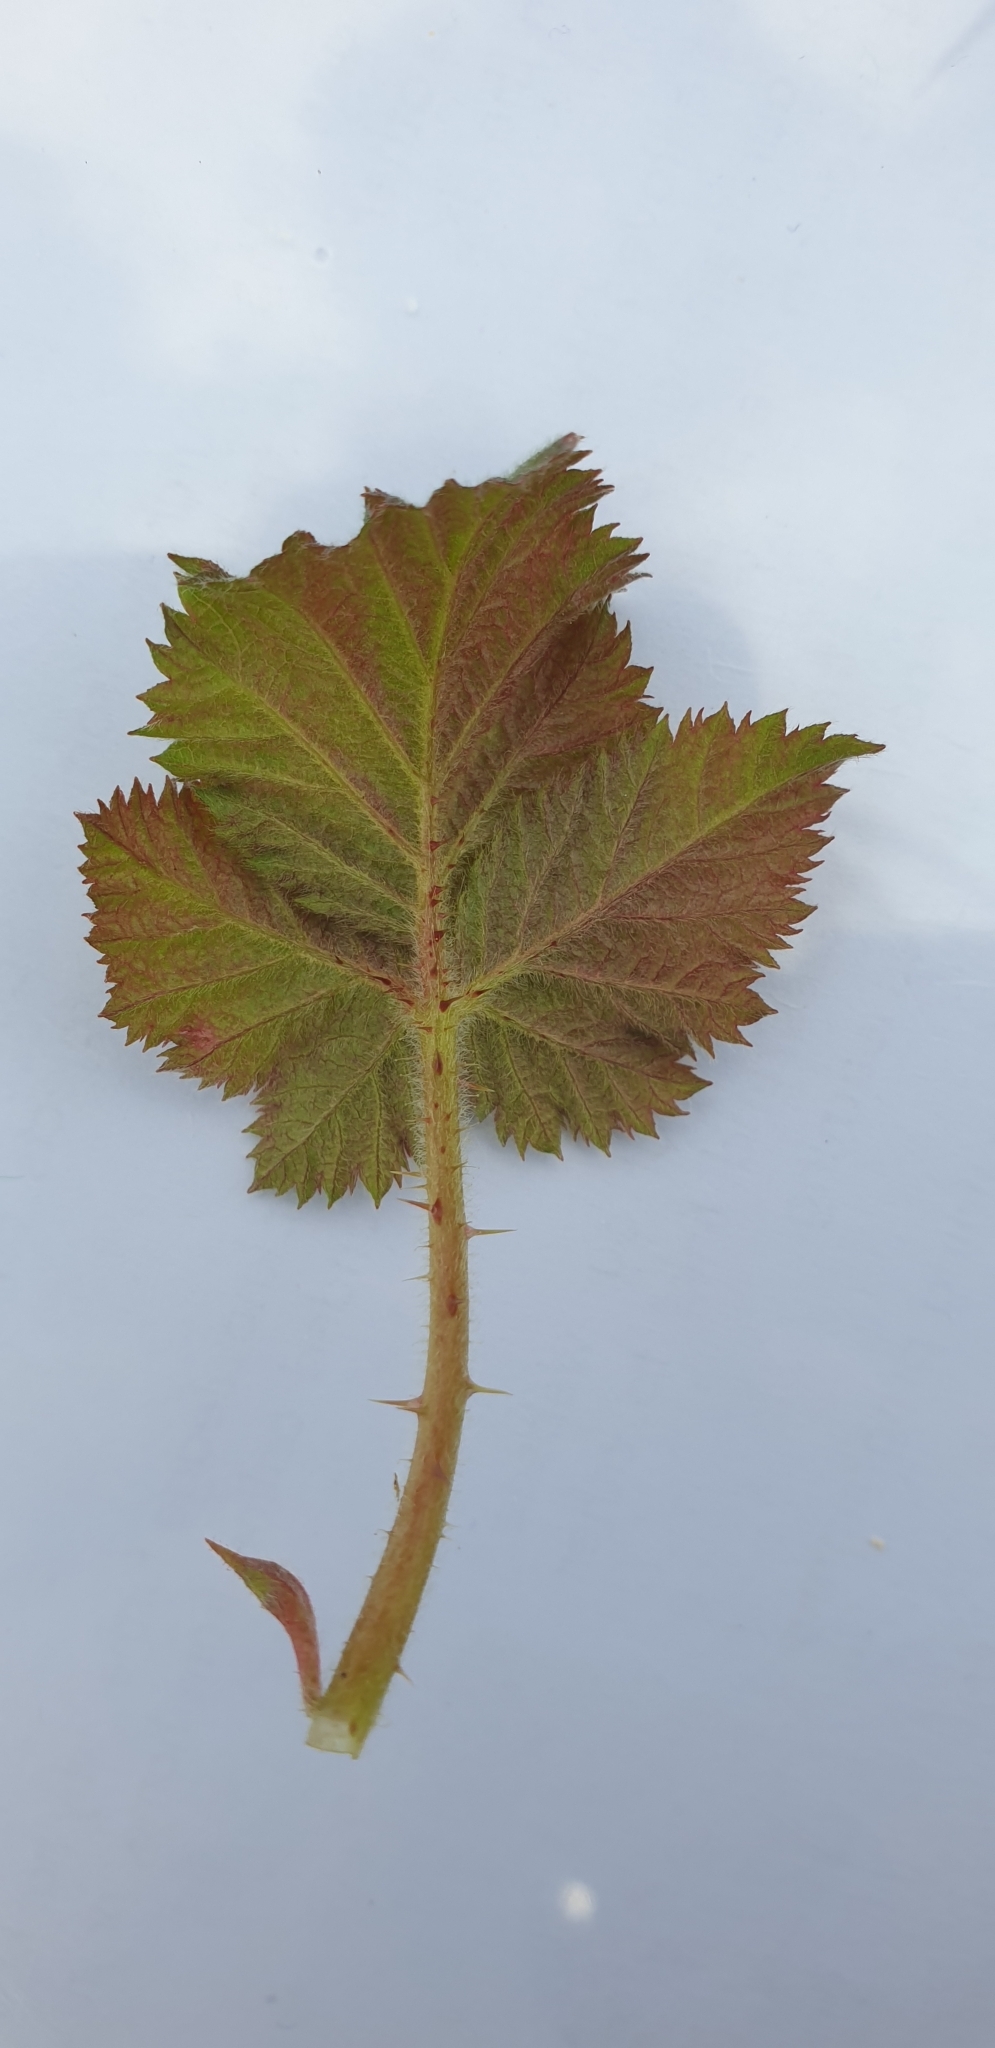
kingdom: Plantae
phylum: Tracheophyta
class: Magnoliopsida
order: Rosales
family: Rosaceae
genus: Rubus
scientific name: Rubus fruticosus
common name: Blackberry, bramble
